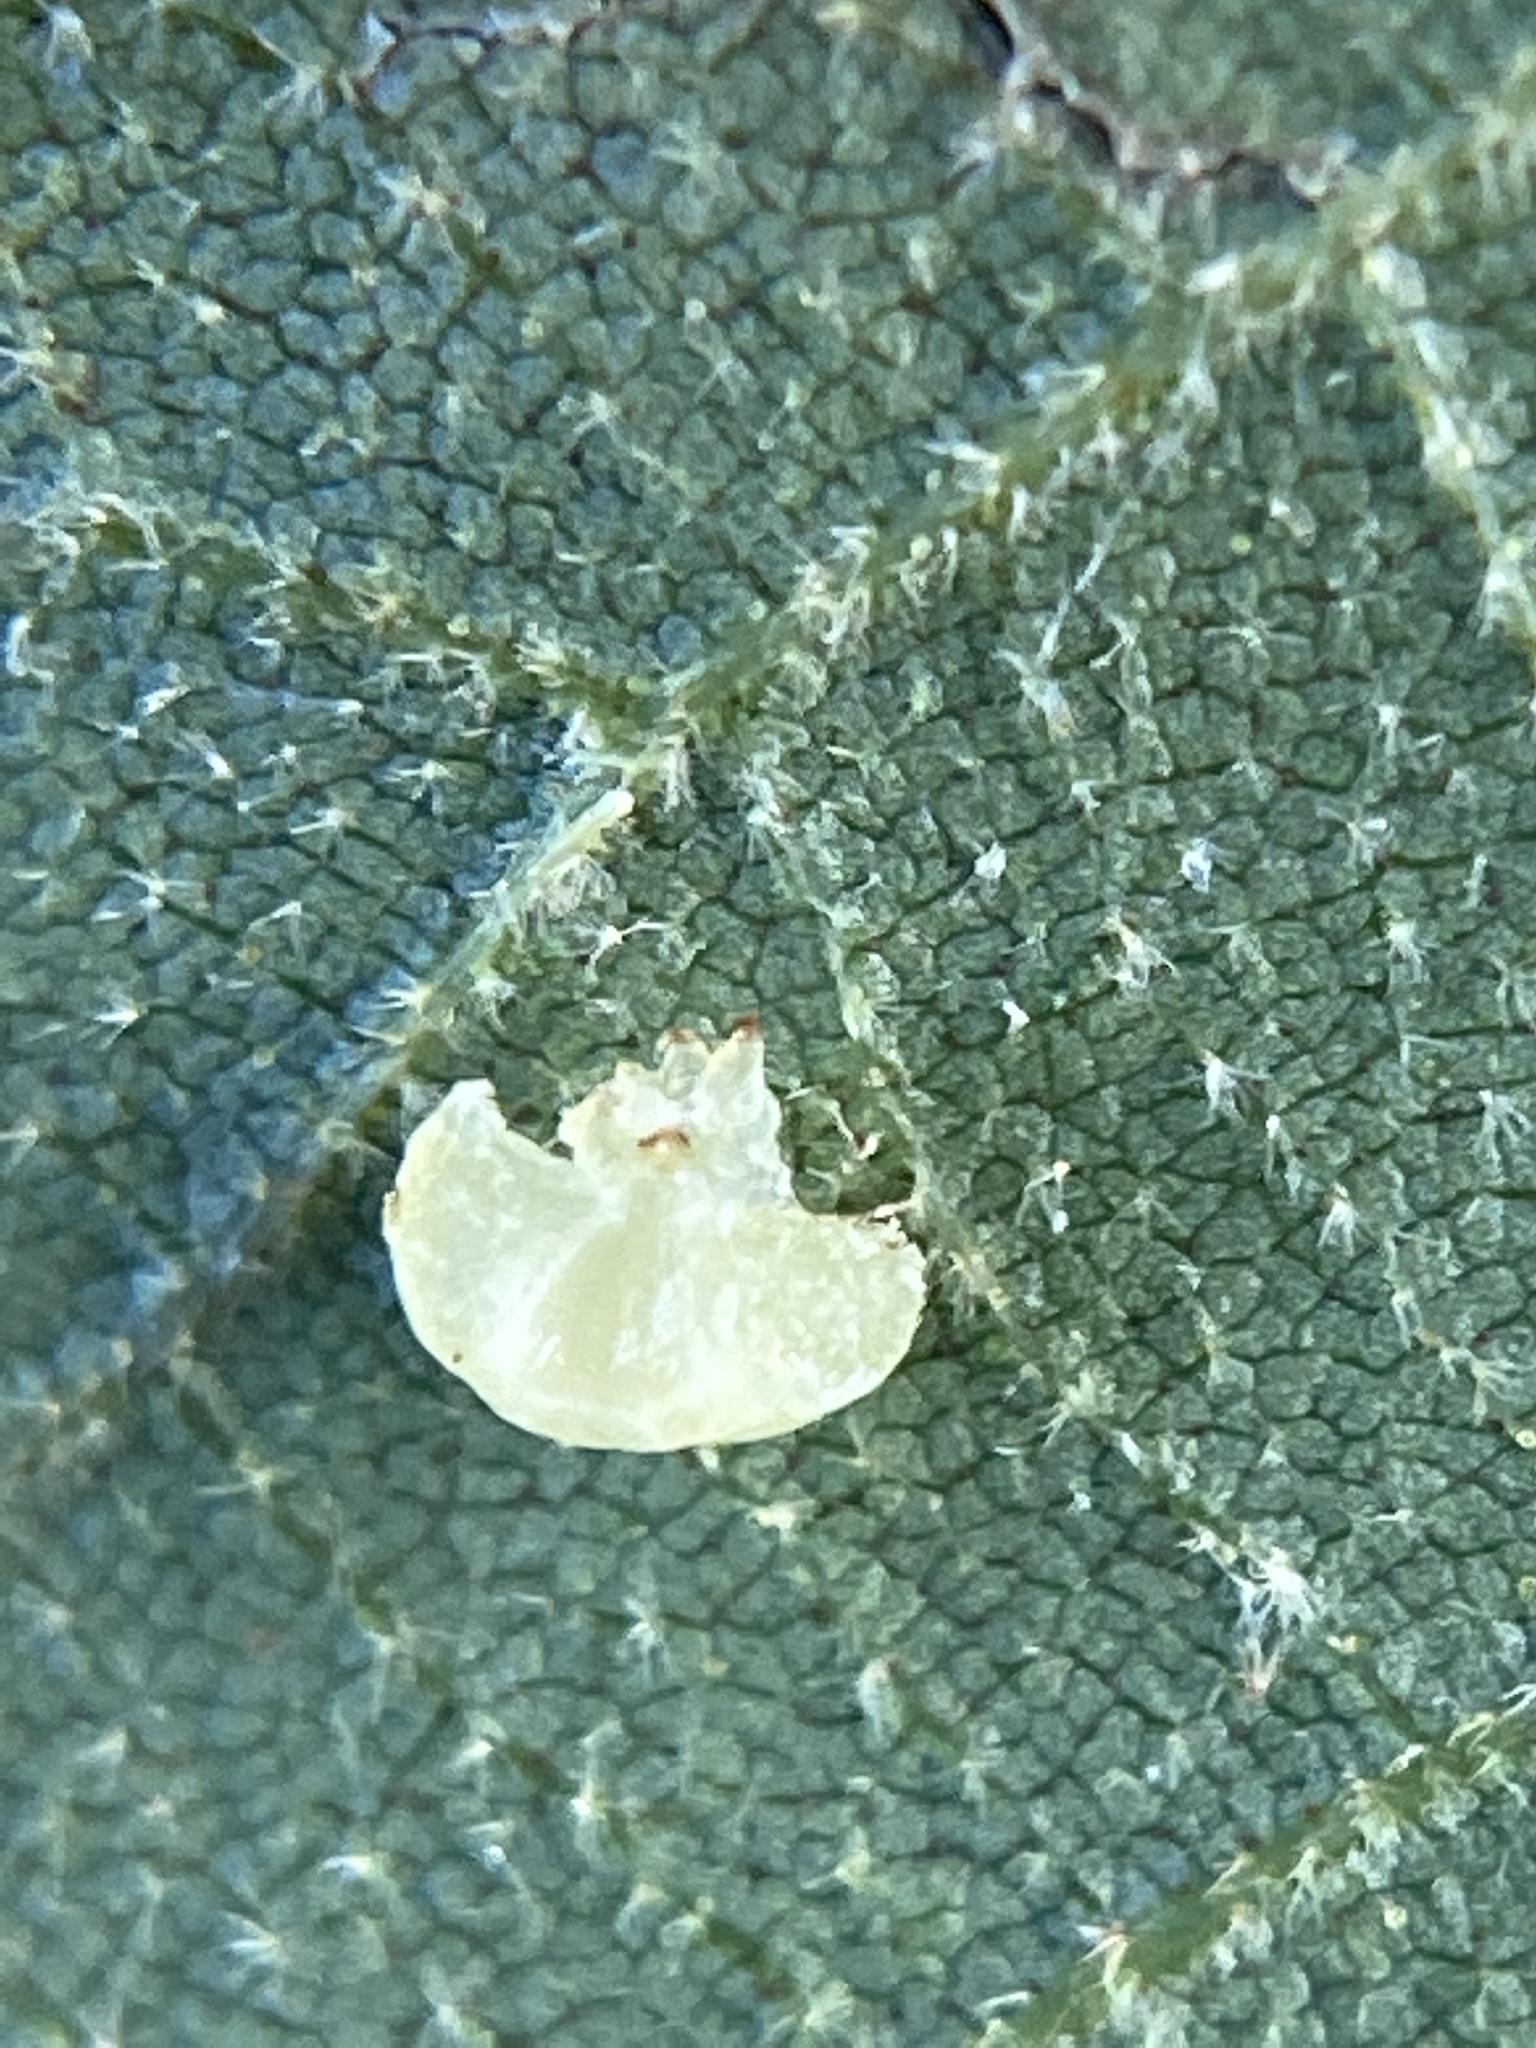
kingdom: Animalia
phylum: Arthropoda
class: Insecta
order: Diptera
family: Cecidomyiidae
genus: Caryomyia
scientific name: Caryomyia melicrustum
